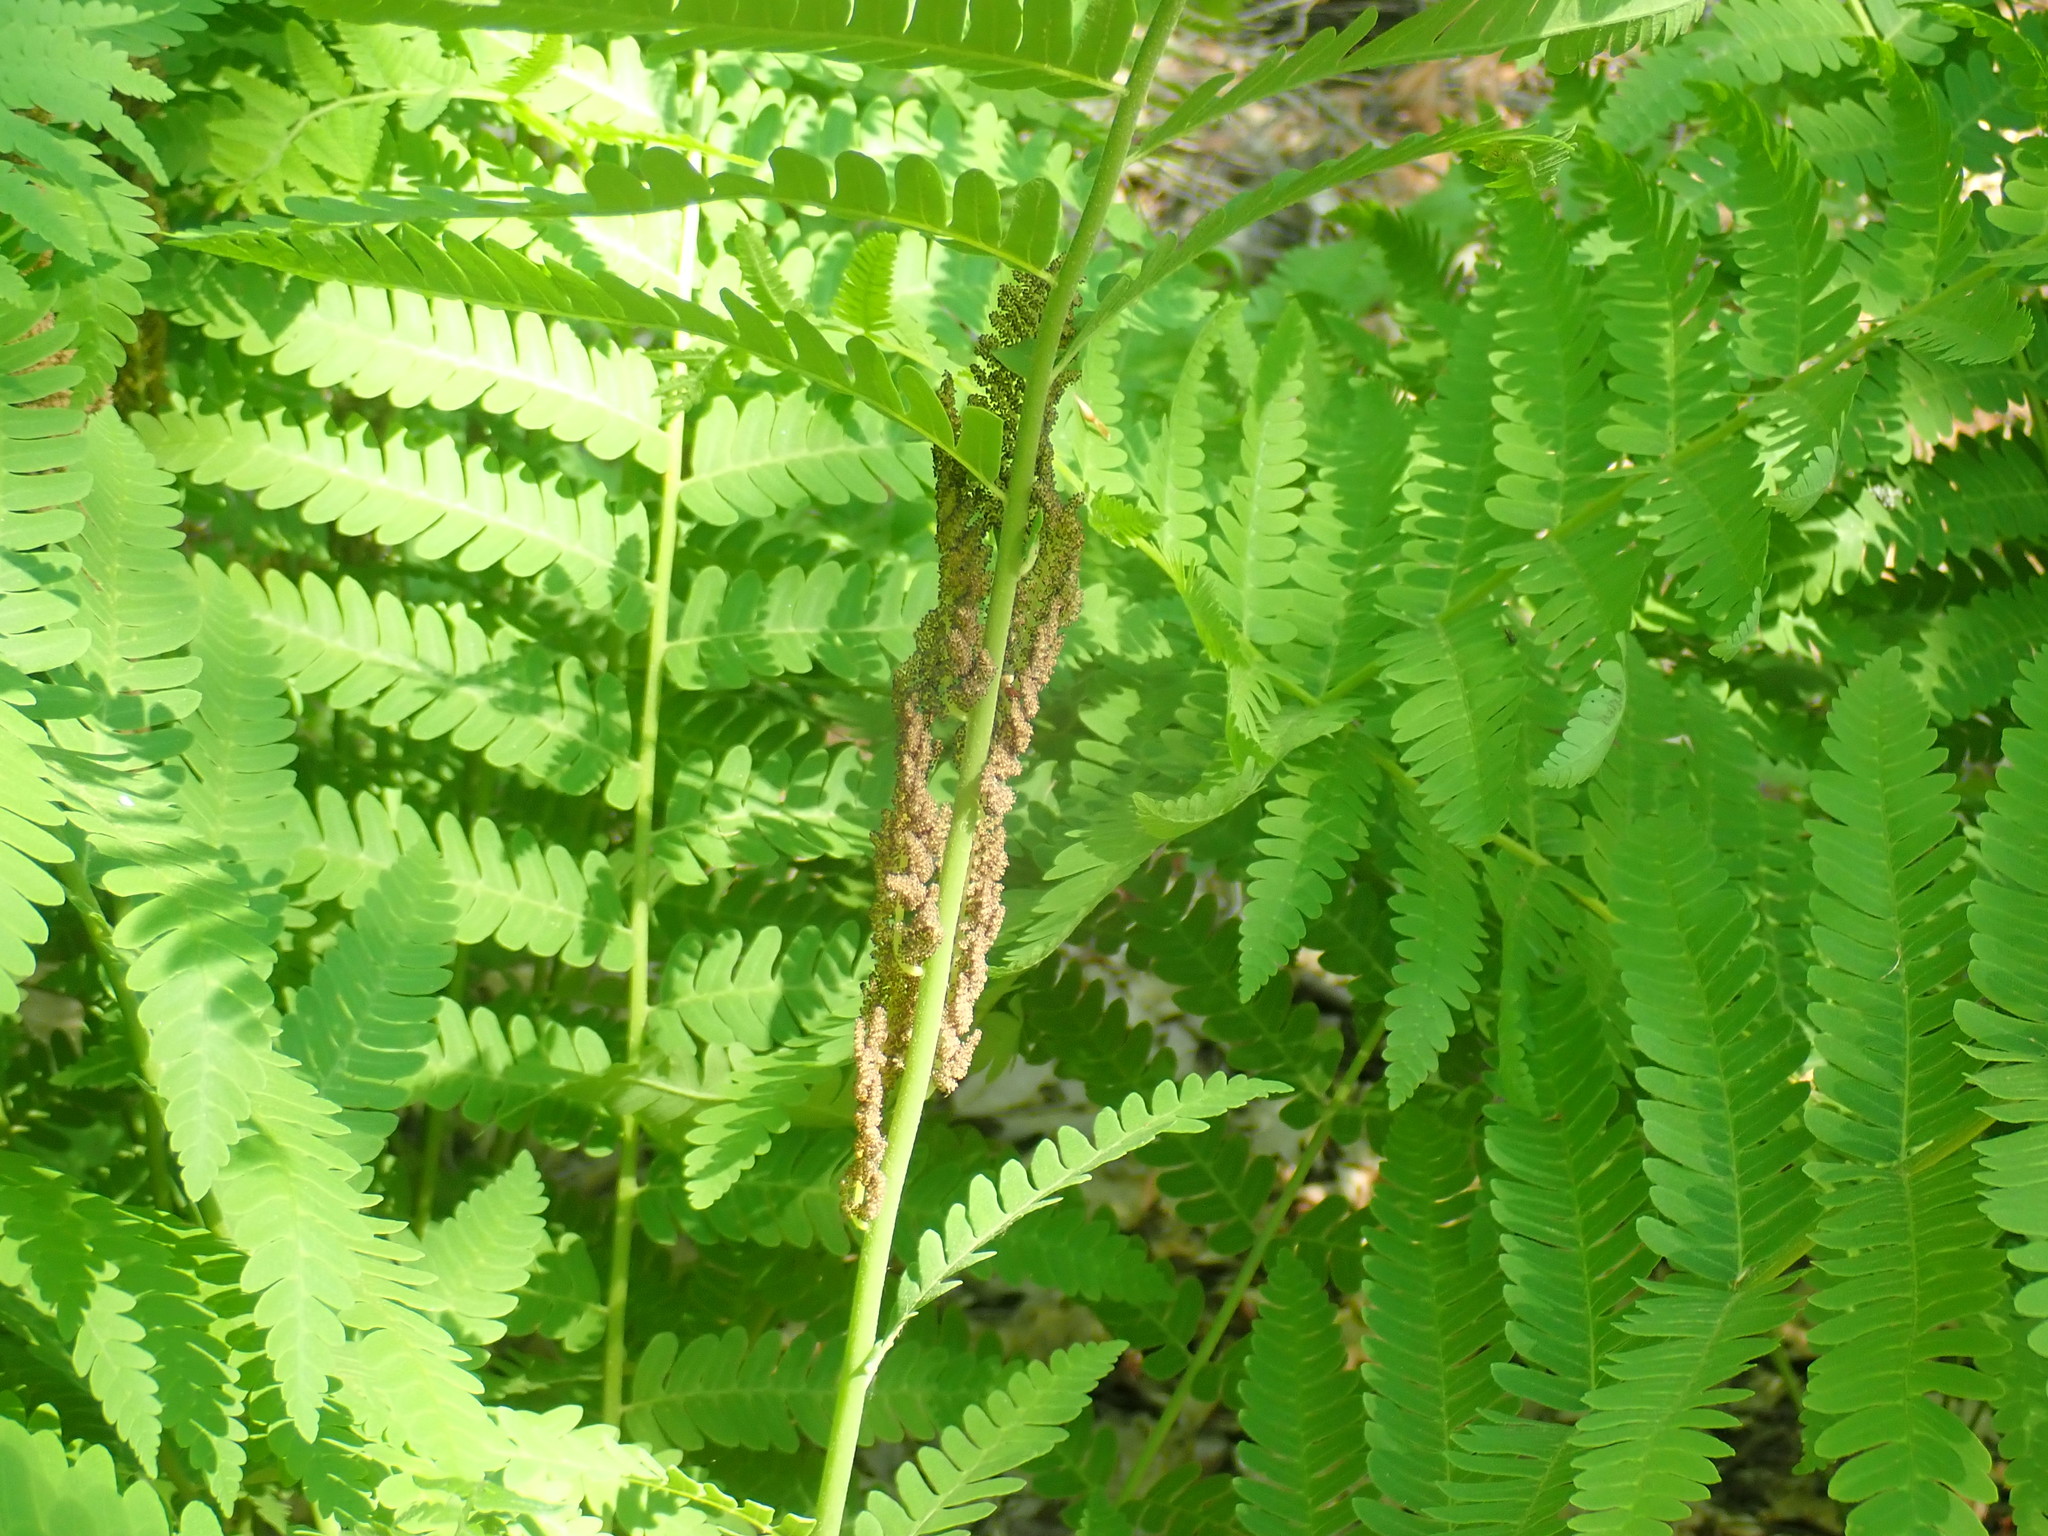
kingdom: Plantae
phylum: Tracheophyta
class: Polypodiopsida
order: Osmundales
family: Osmundaceae
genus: Claytosmunda
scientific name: Claytosmunda claytoniana
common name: Clayton's fern
